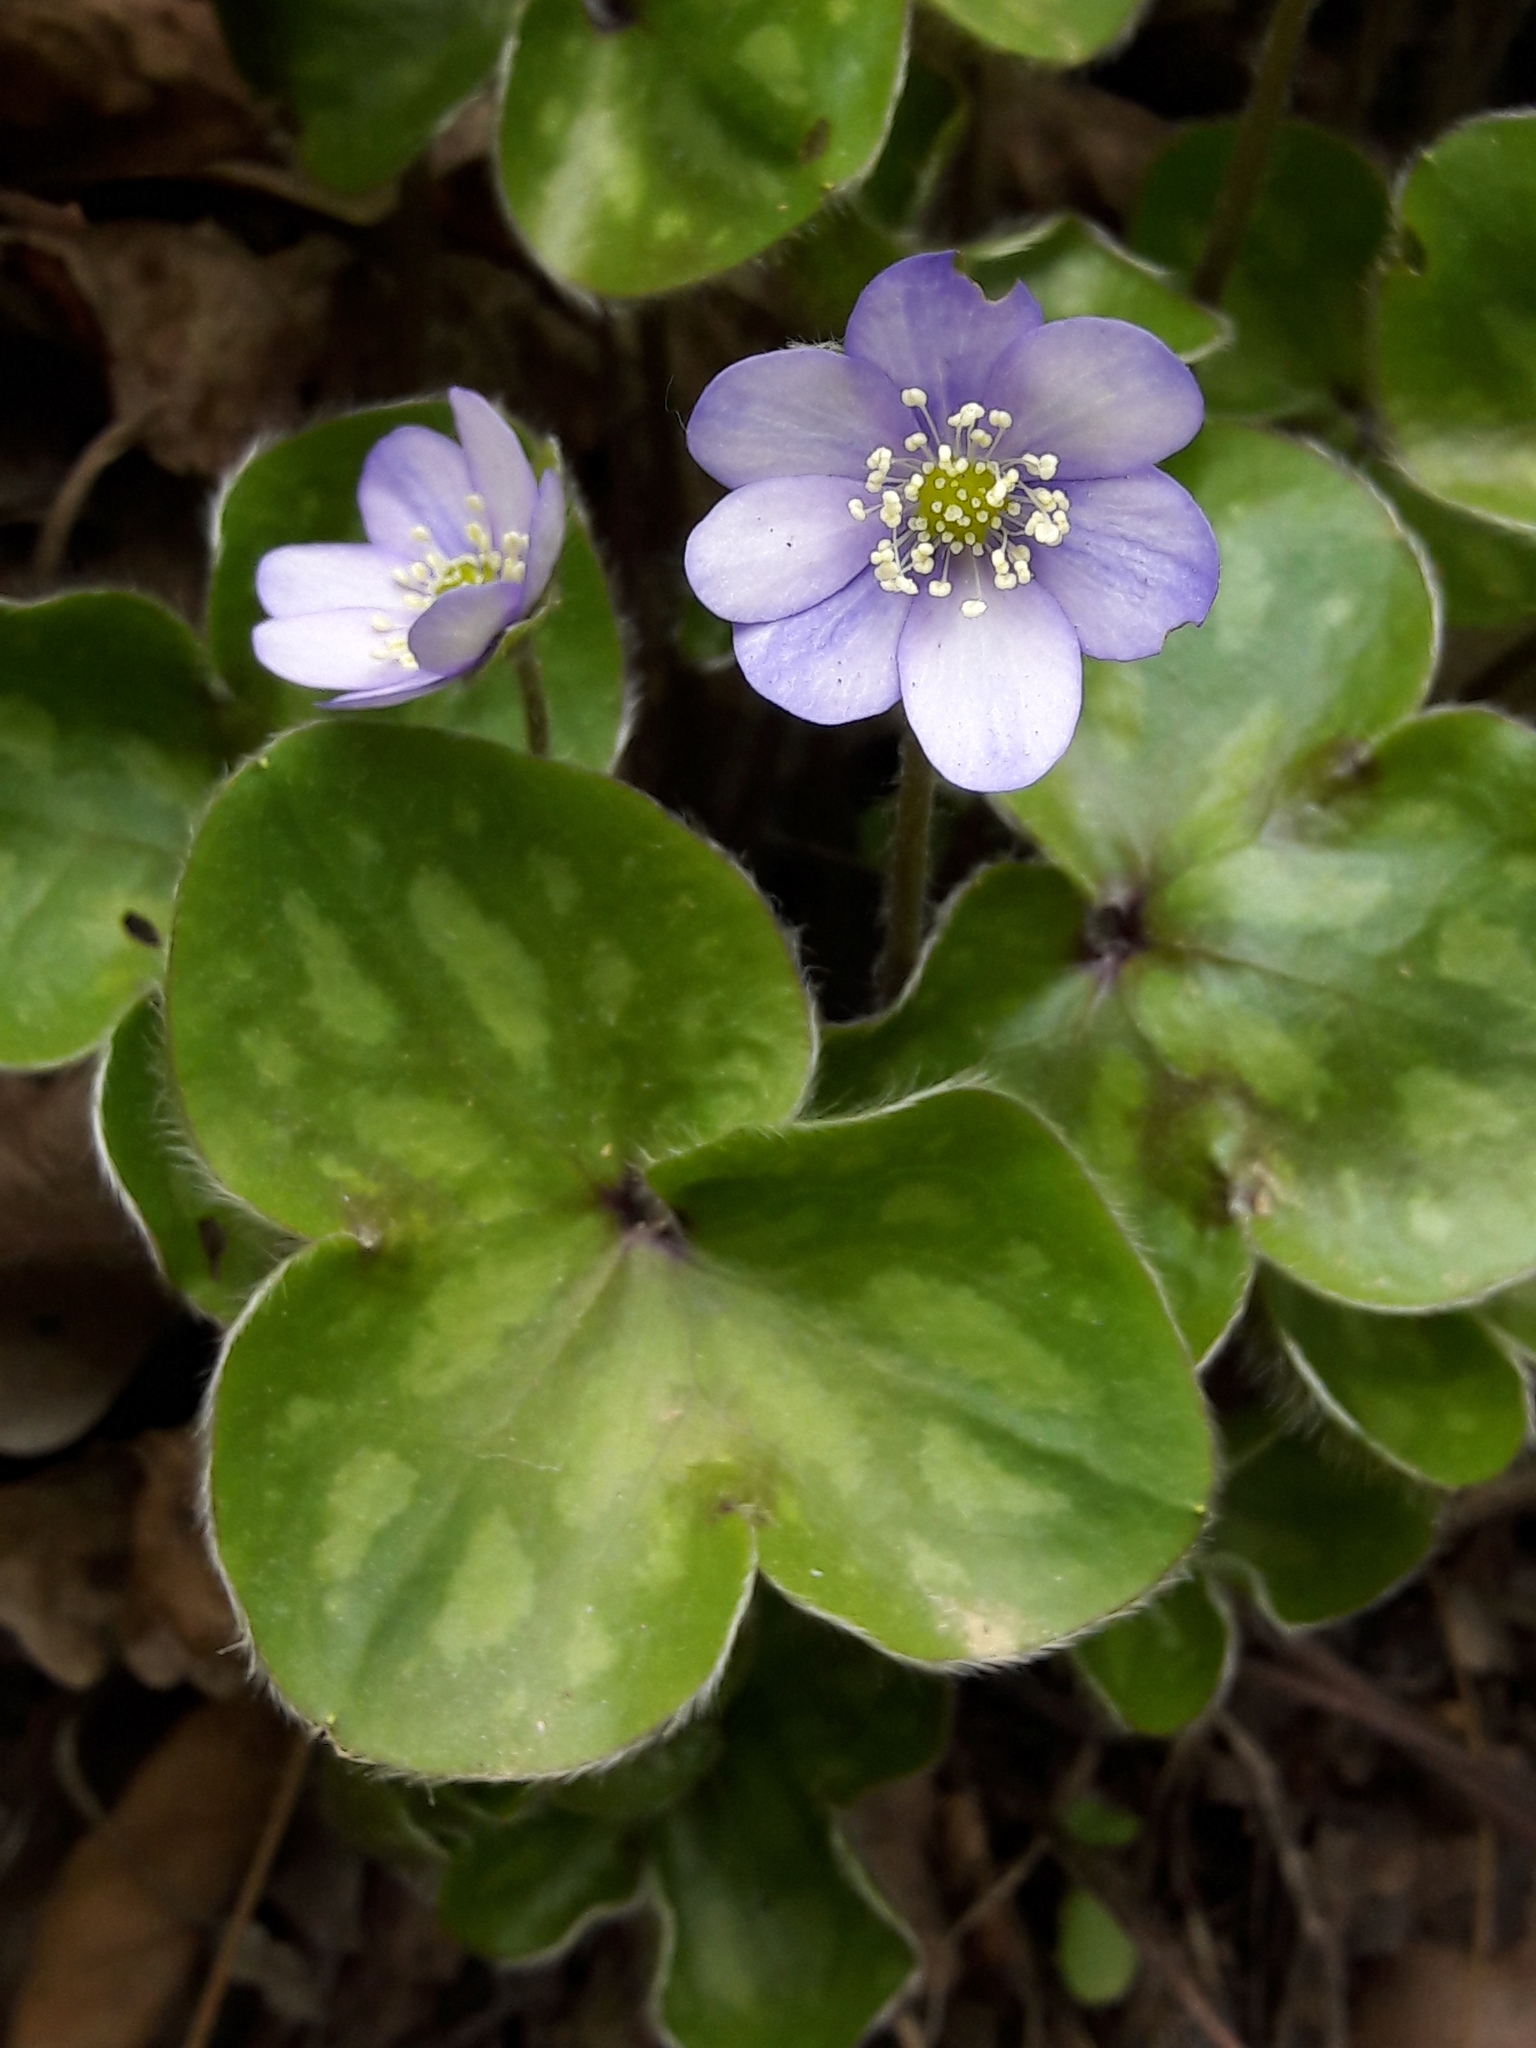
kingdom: Plantae
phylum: Tracheophyta
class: Magnoliopsida
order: Ranunculales
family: Ranunculaceae
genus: Hepatica
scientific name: Hepatica nobilis
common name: Liverleaf
